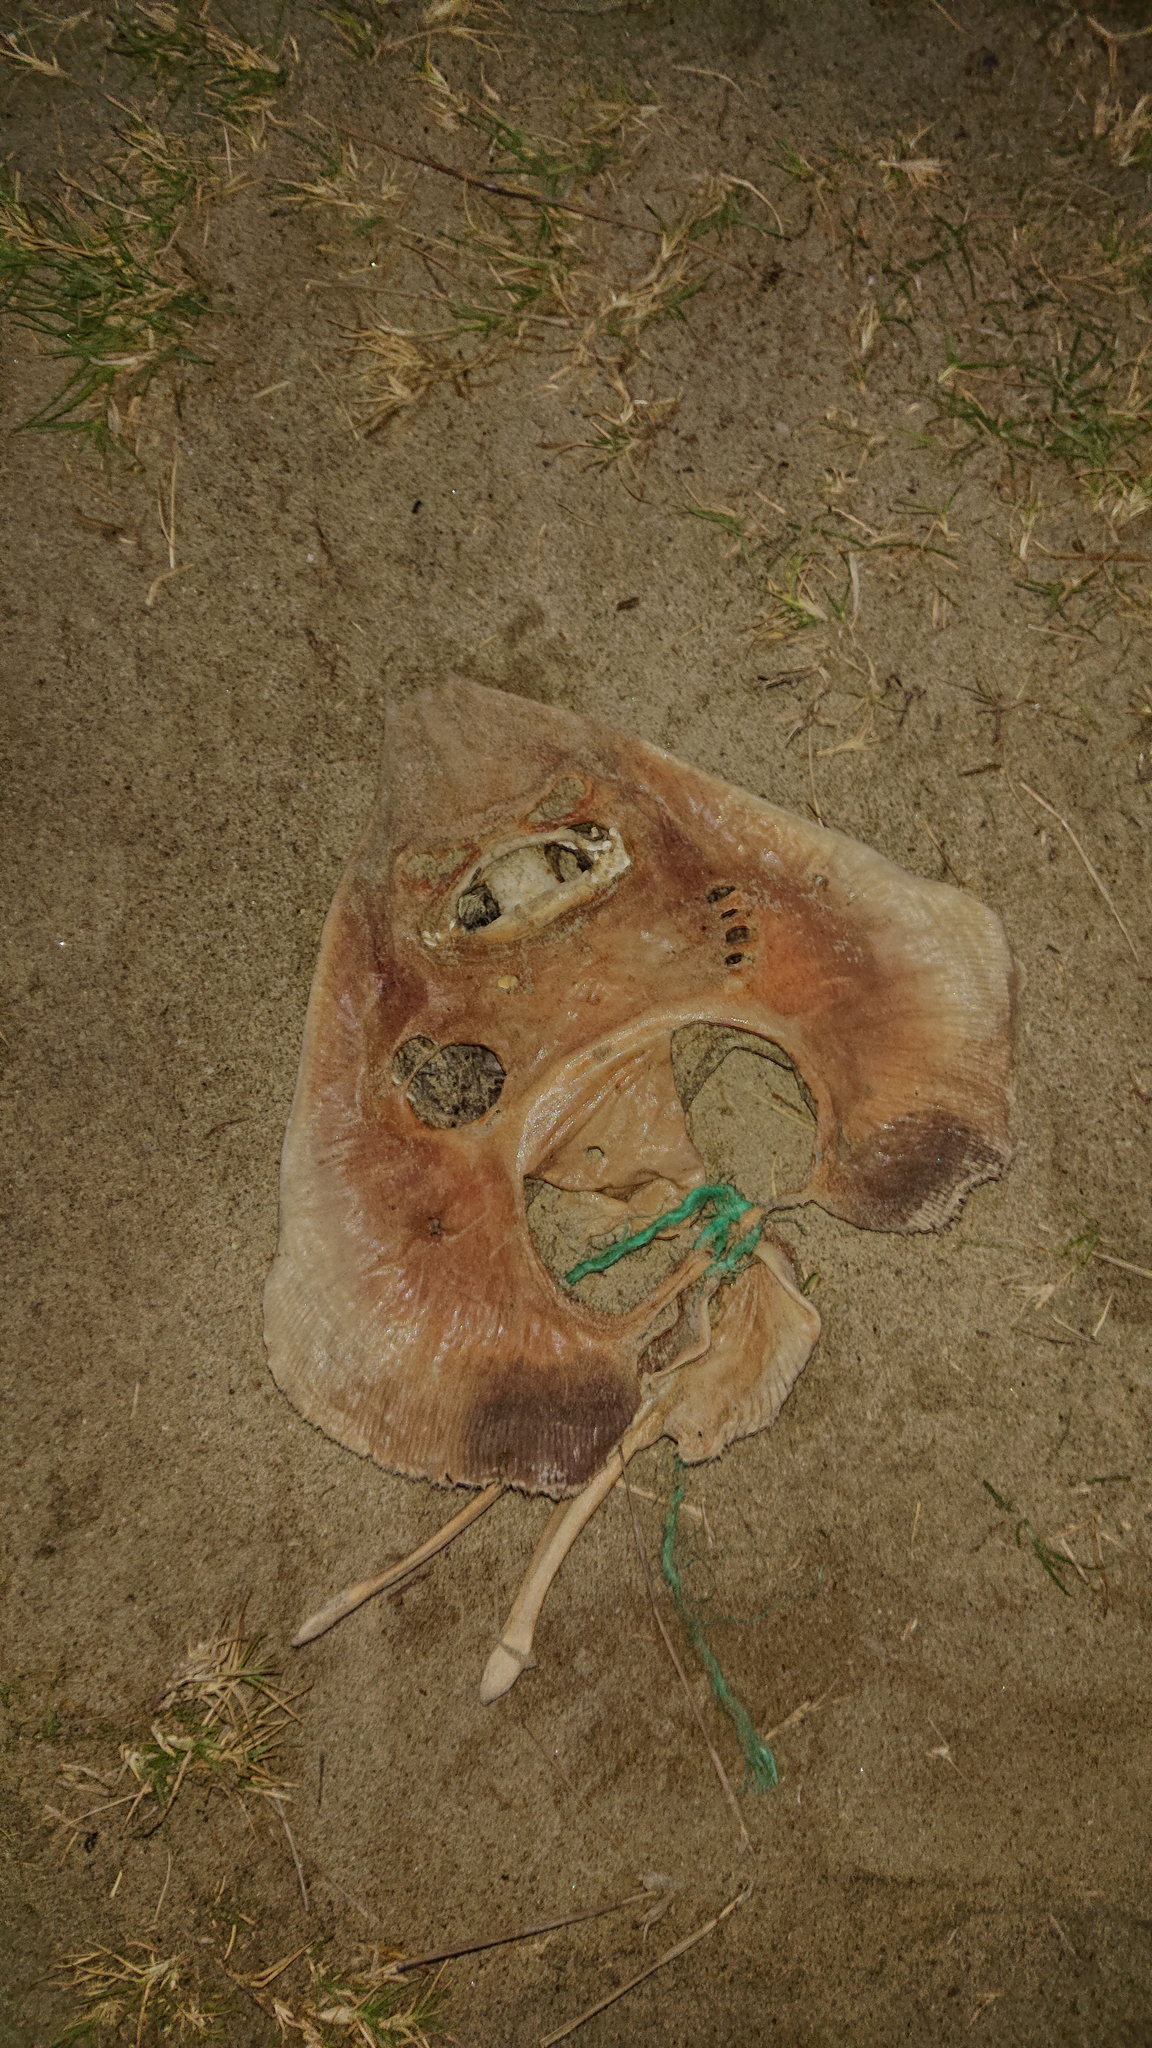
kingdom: Animalia
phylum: Chordata
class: Elasmobranchii
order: Rhinopristiformes
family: Rhinobatidae
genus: Zapteryx
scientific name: Zapteryx xyster
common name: Witch guitarfish
